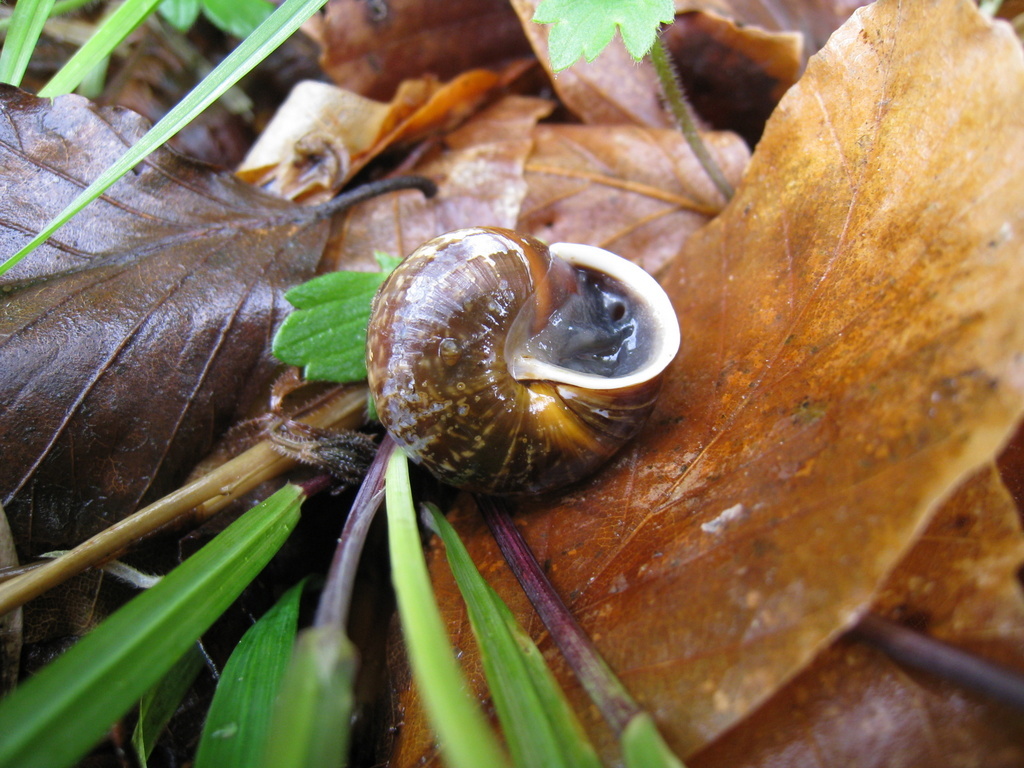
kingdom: Animalia
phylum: Mollusca
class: Gastropoda
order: Stylommatophora
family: Helicidae
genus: Arianta
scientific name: Arianta arbustorum
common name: Copse snail
